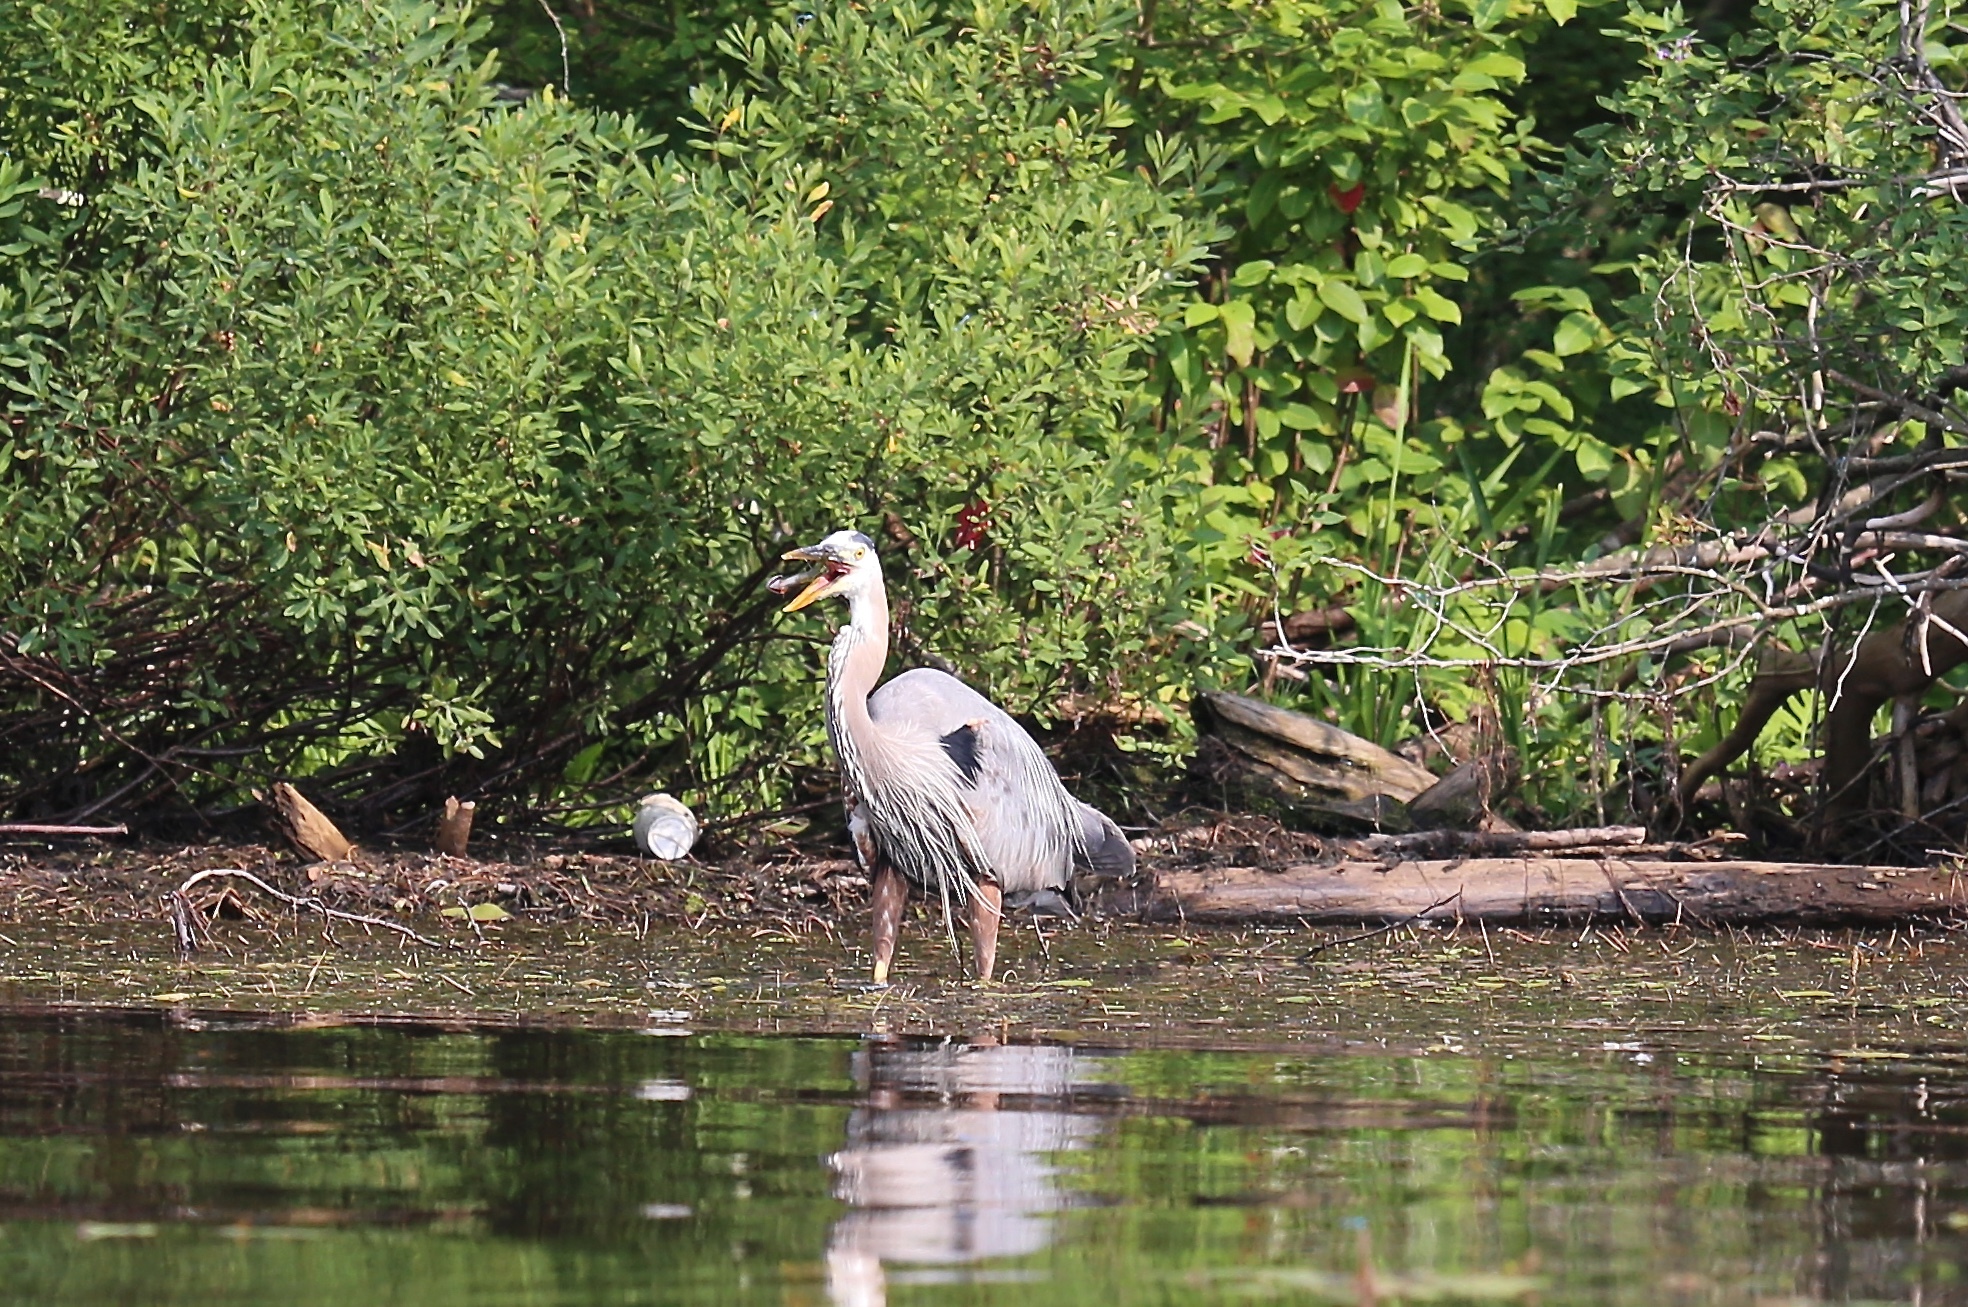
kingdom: Animalia
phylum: Chordata
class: Aves
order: Pelecaniformes
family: Ardeidae
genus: Ardea
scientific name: Ardea herodias
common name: Great blue heron
